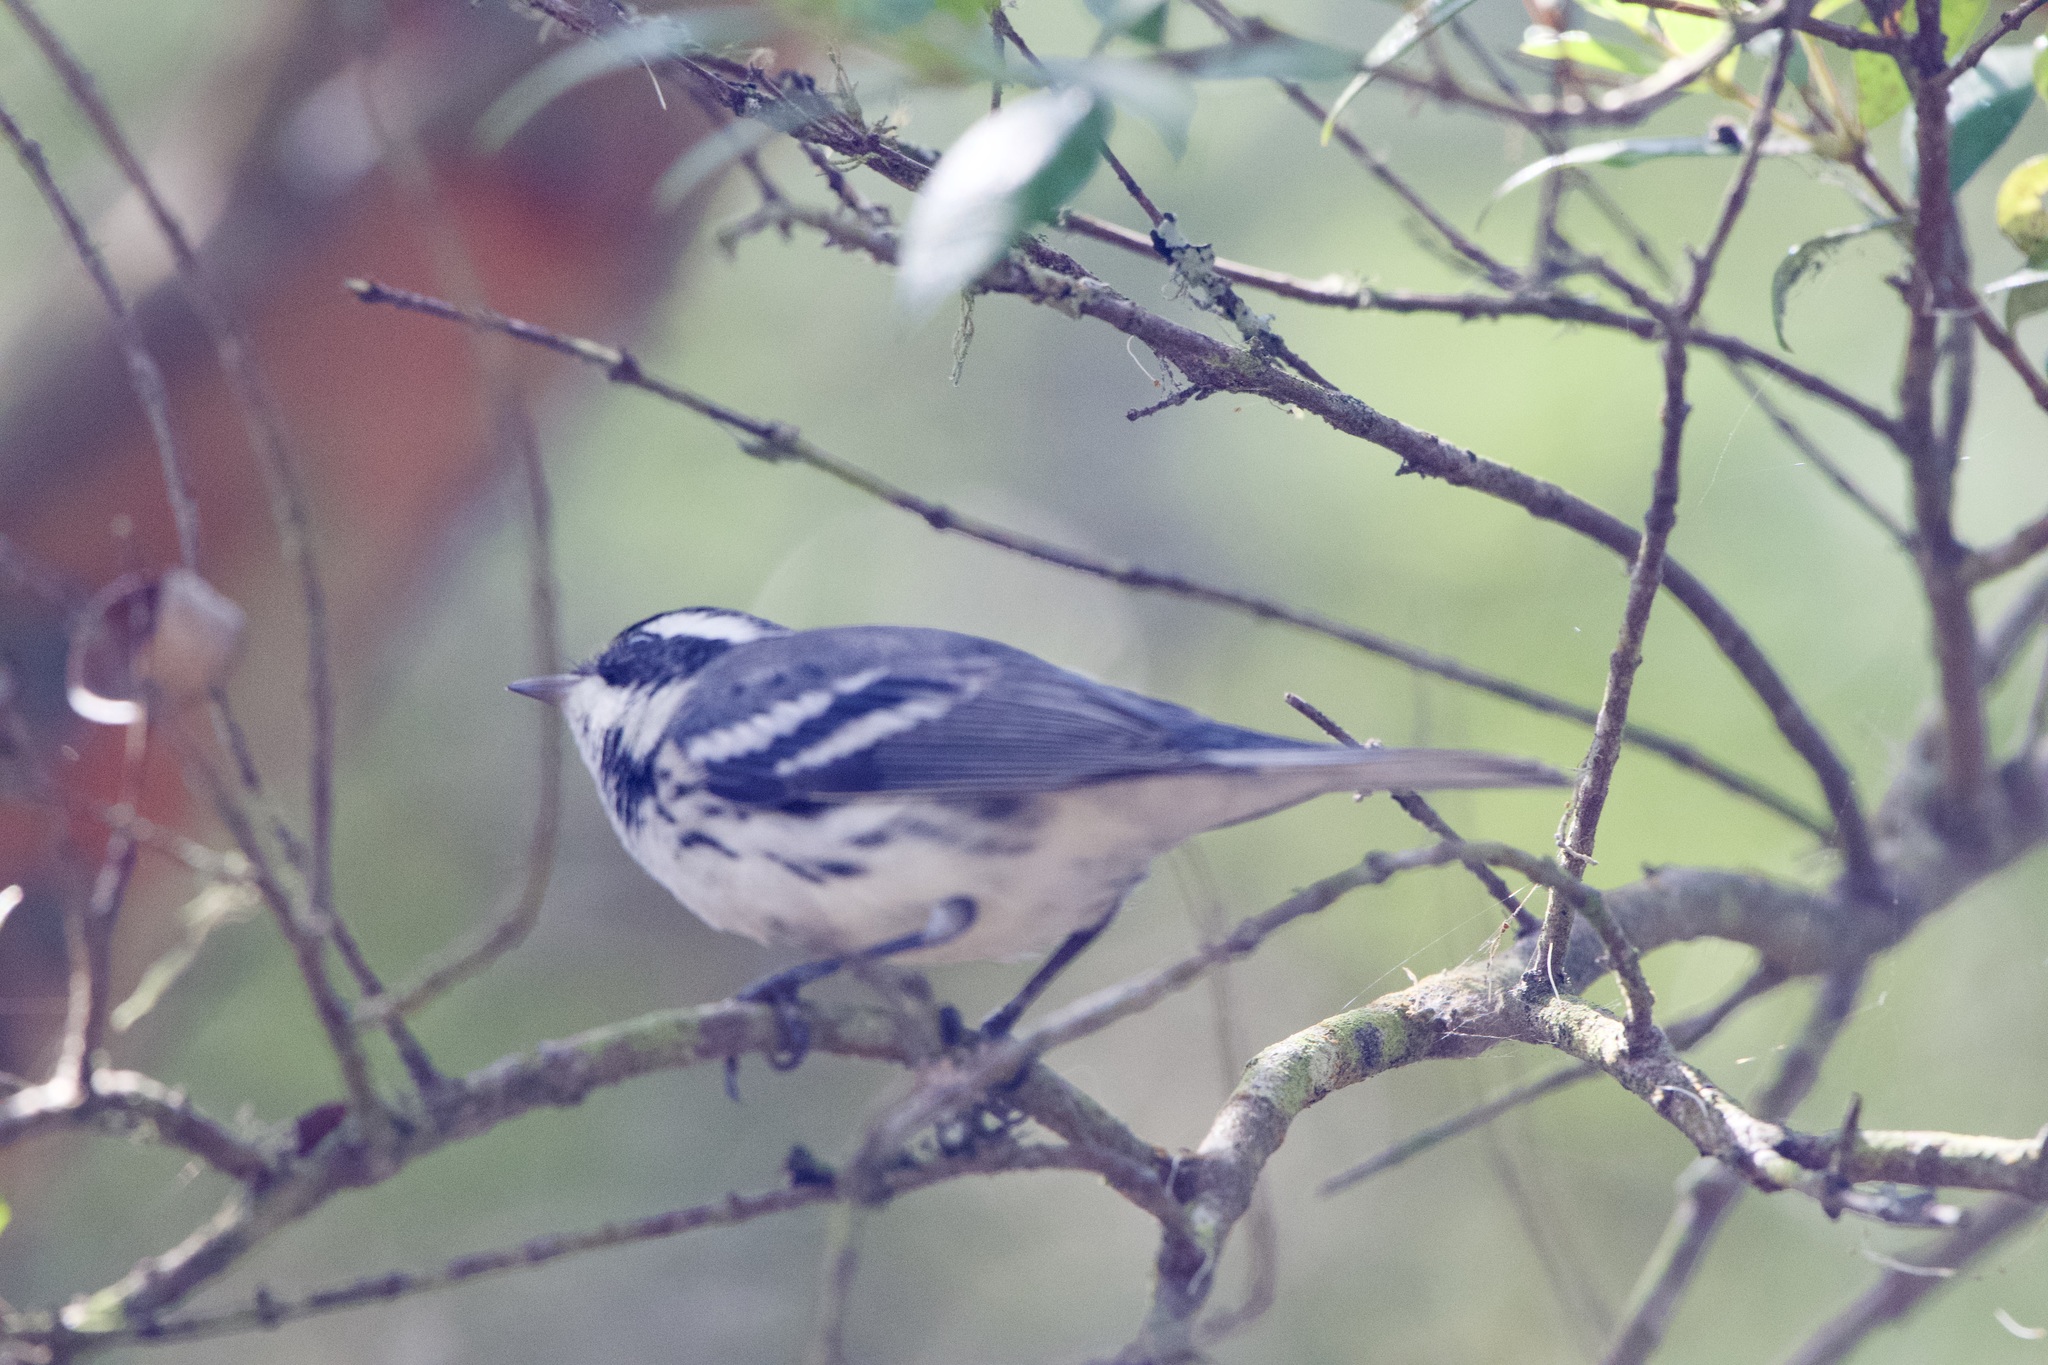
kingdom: Animalia
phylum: Chordata
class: Aves
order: Passeriformes
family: Parulidae
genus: Setophaga
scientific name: Setophaga nigrescens
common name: Black-throated gray warbler
